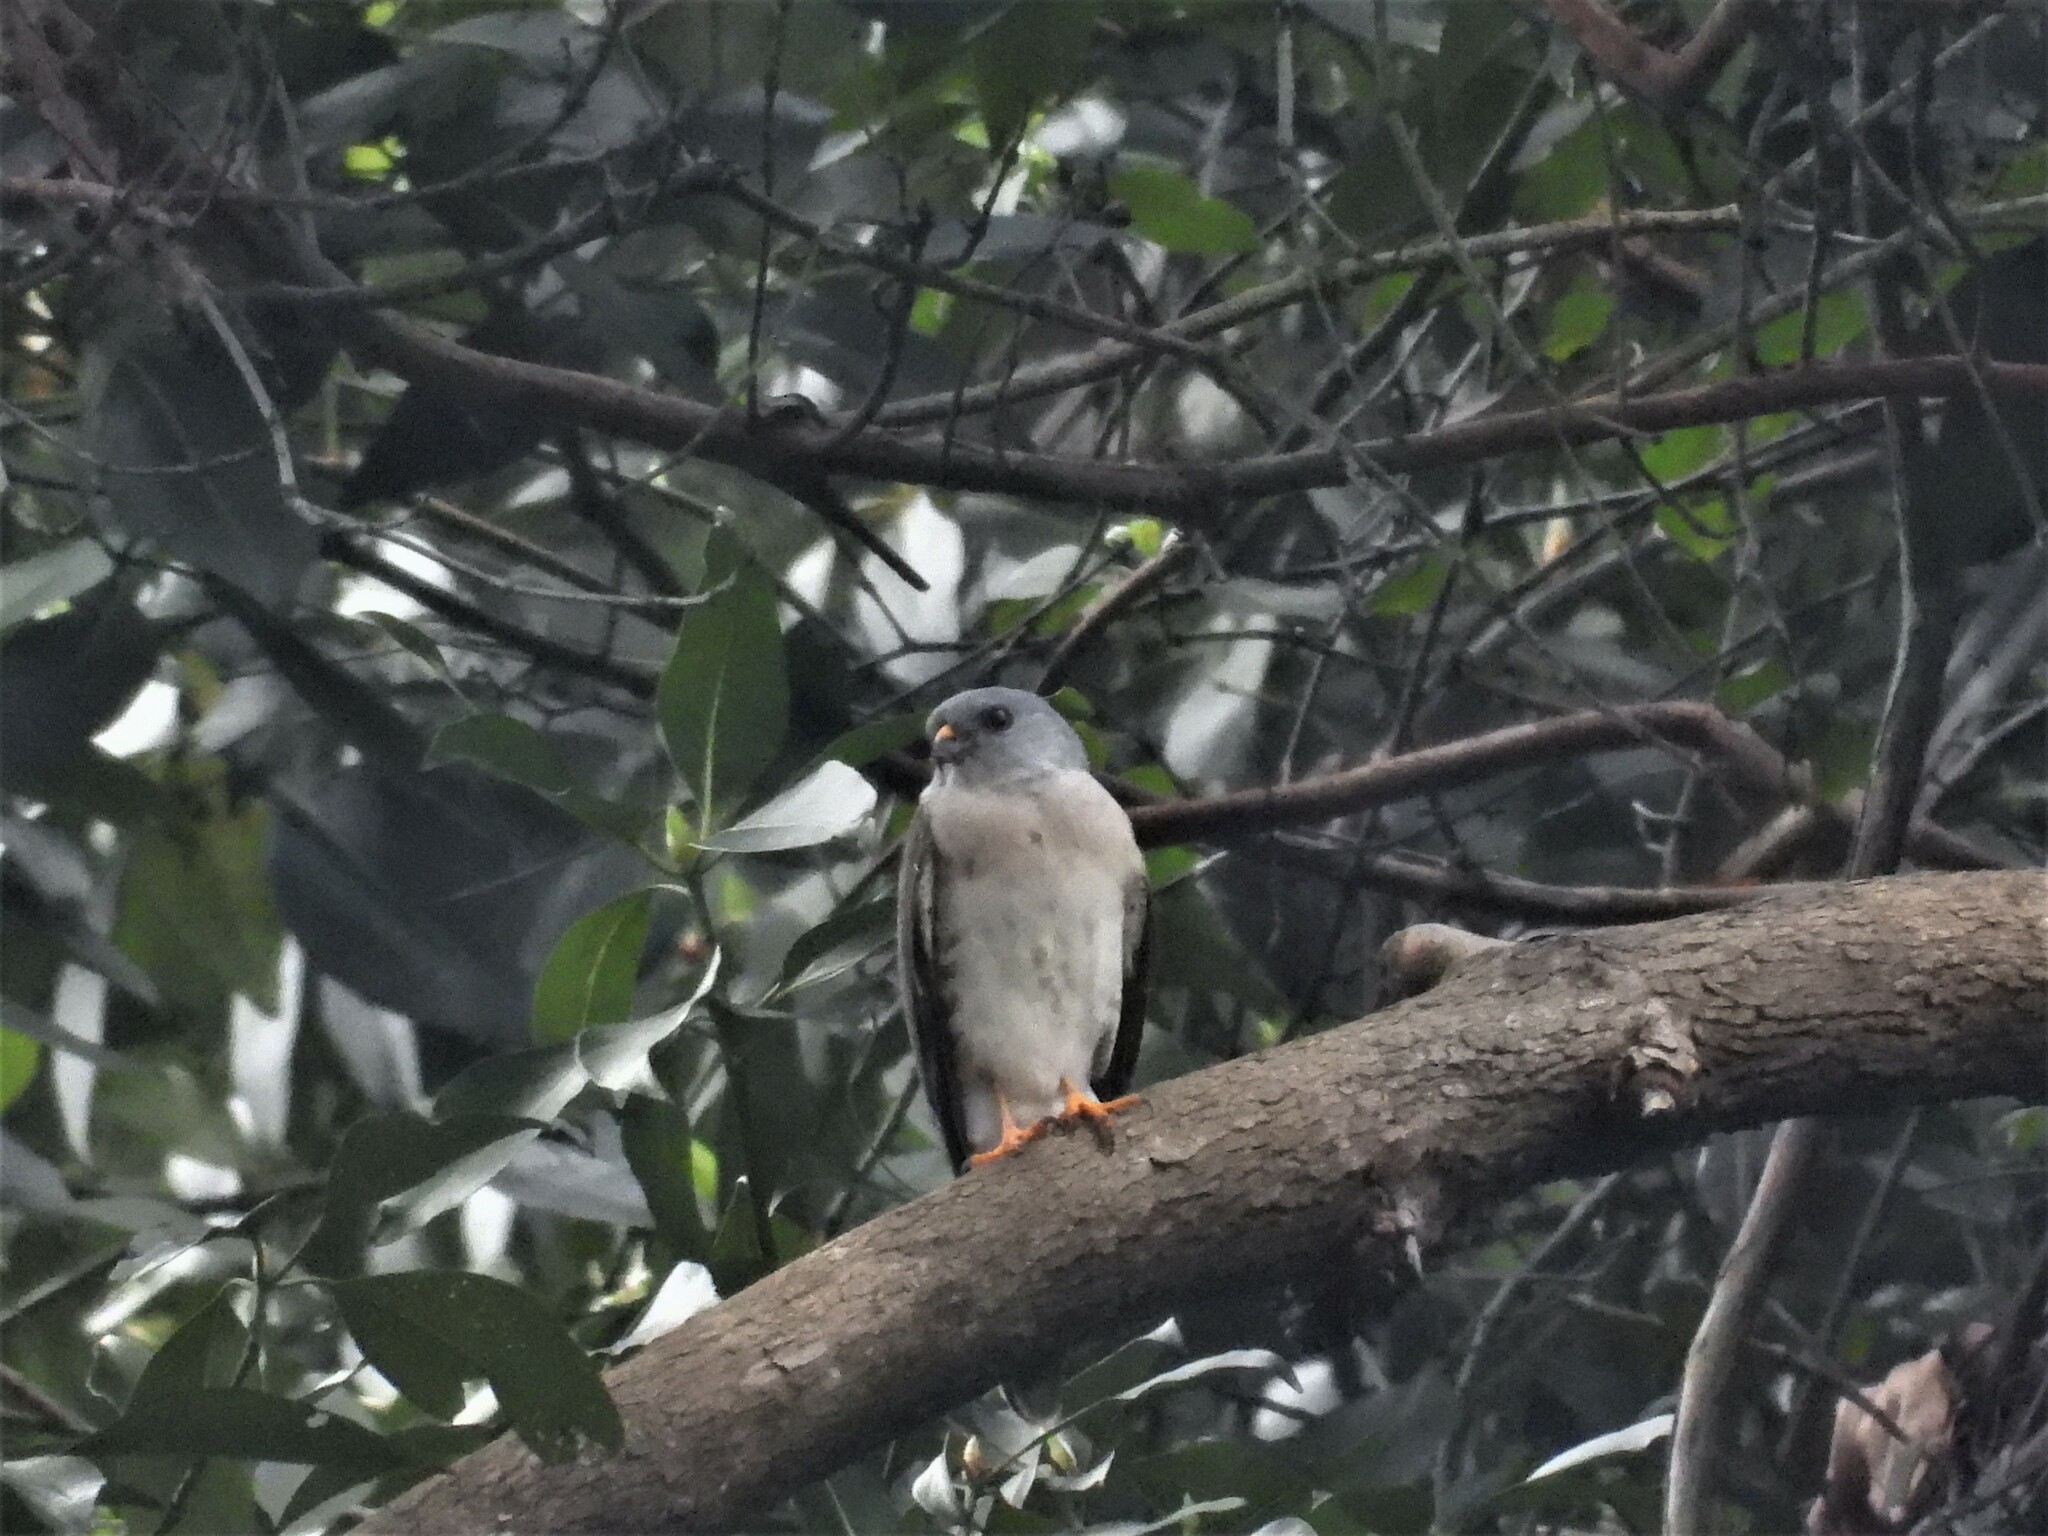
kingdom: Animalia
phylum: Chordata
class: Aves
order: Accipitriformes
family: Accipitridae
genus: Accipiter
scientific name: Accipiter soloensis
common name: Chinese sparrowhawk
